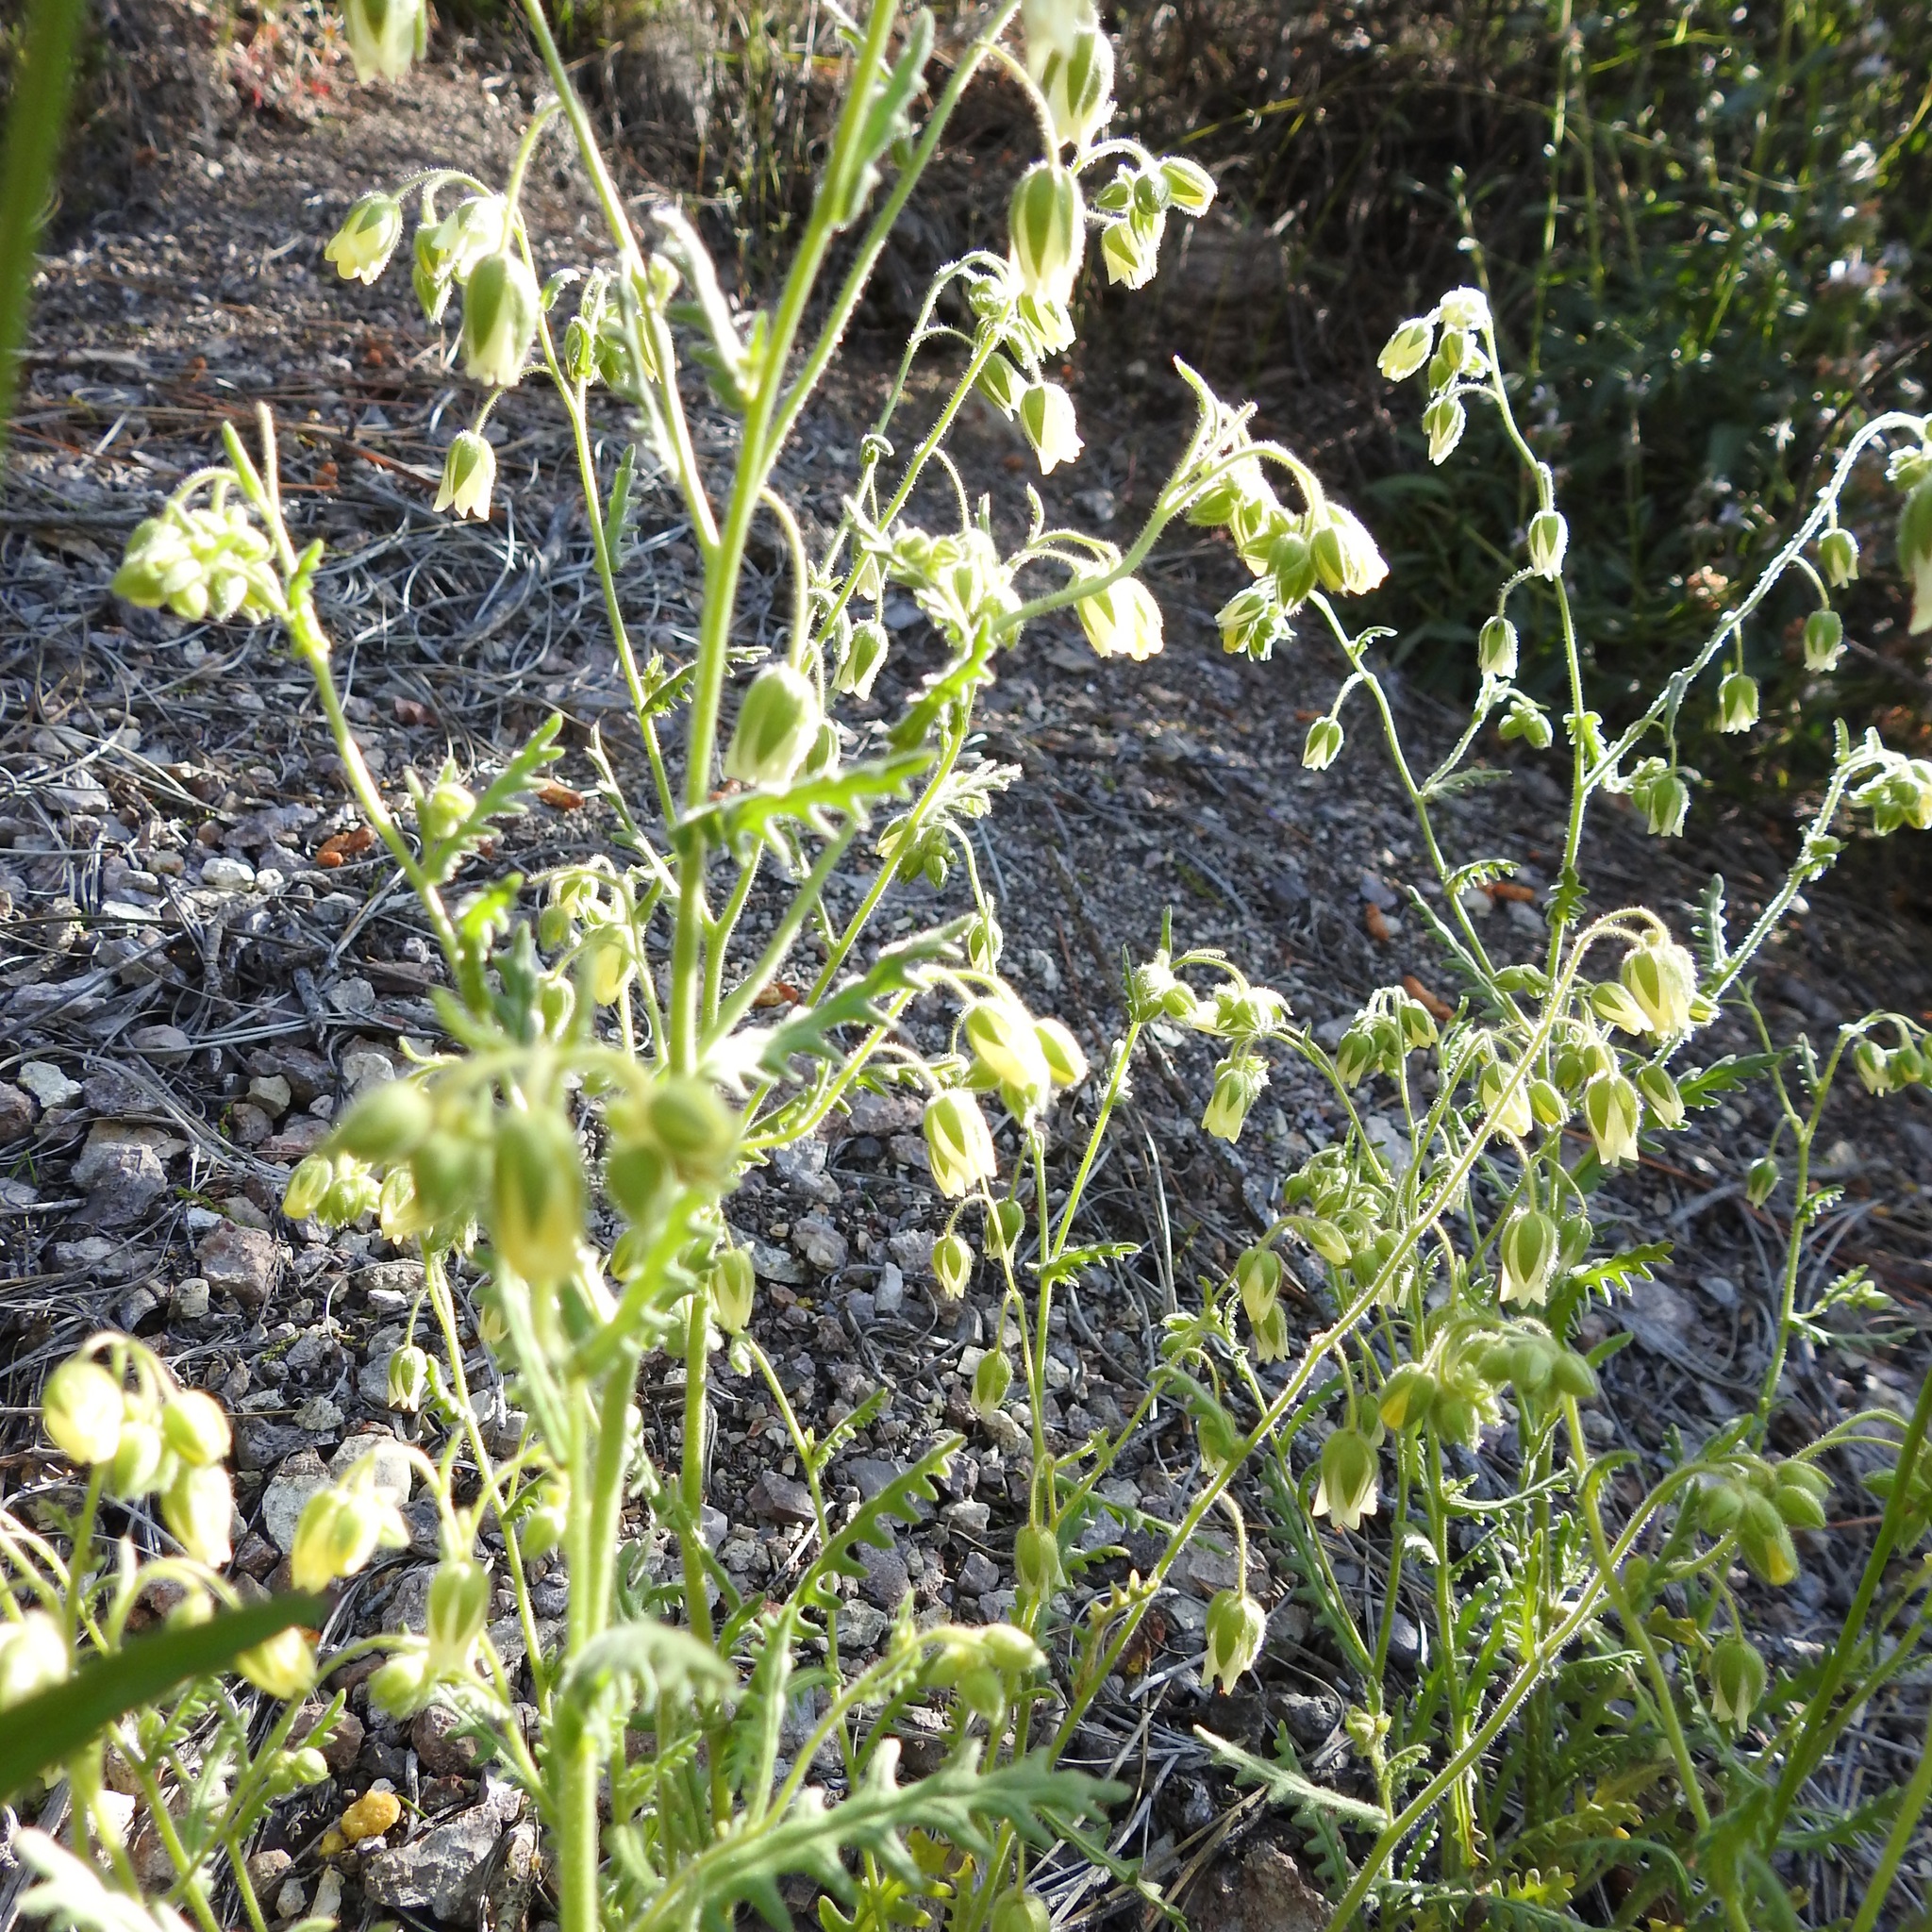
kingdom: Plantae
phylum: Tracheophyta
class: Magnoliopsida
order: Boraginales
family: Hydrophyllaceae
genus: Emmenanthe
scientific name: Emmenanthe penduliflora
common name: Whispering-bells
